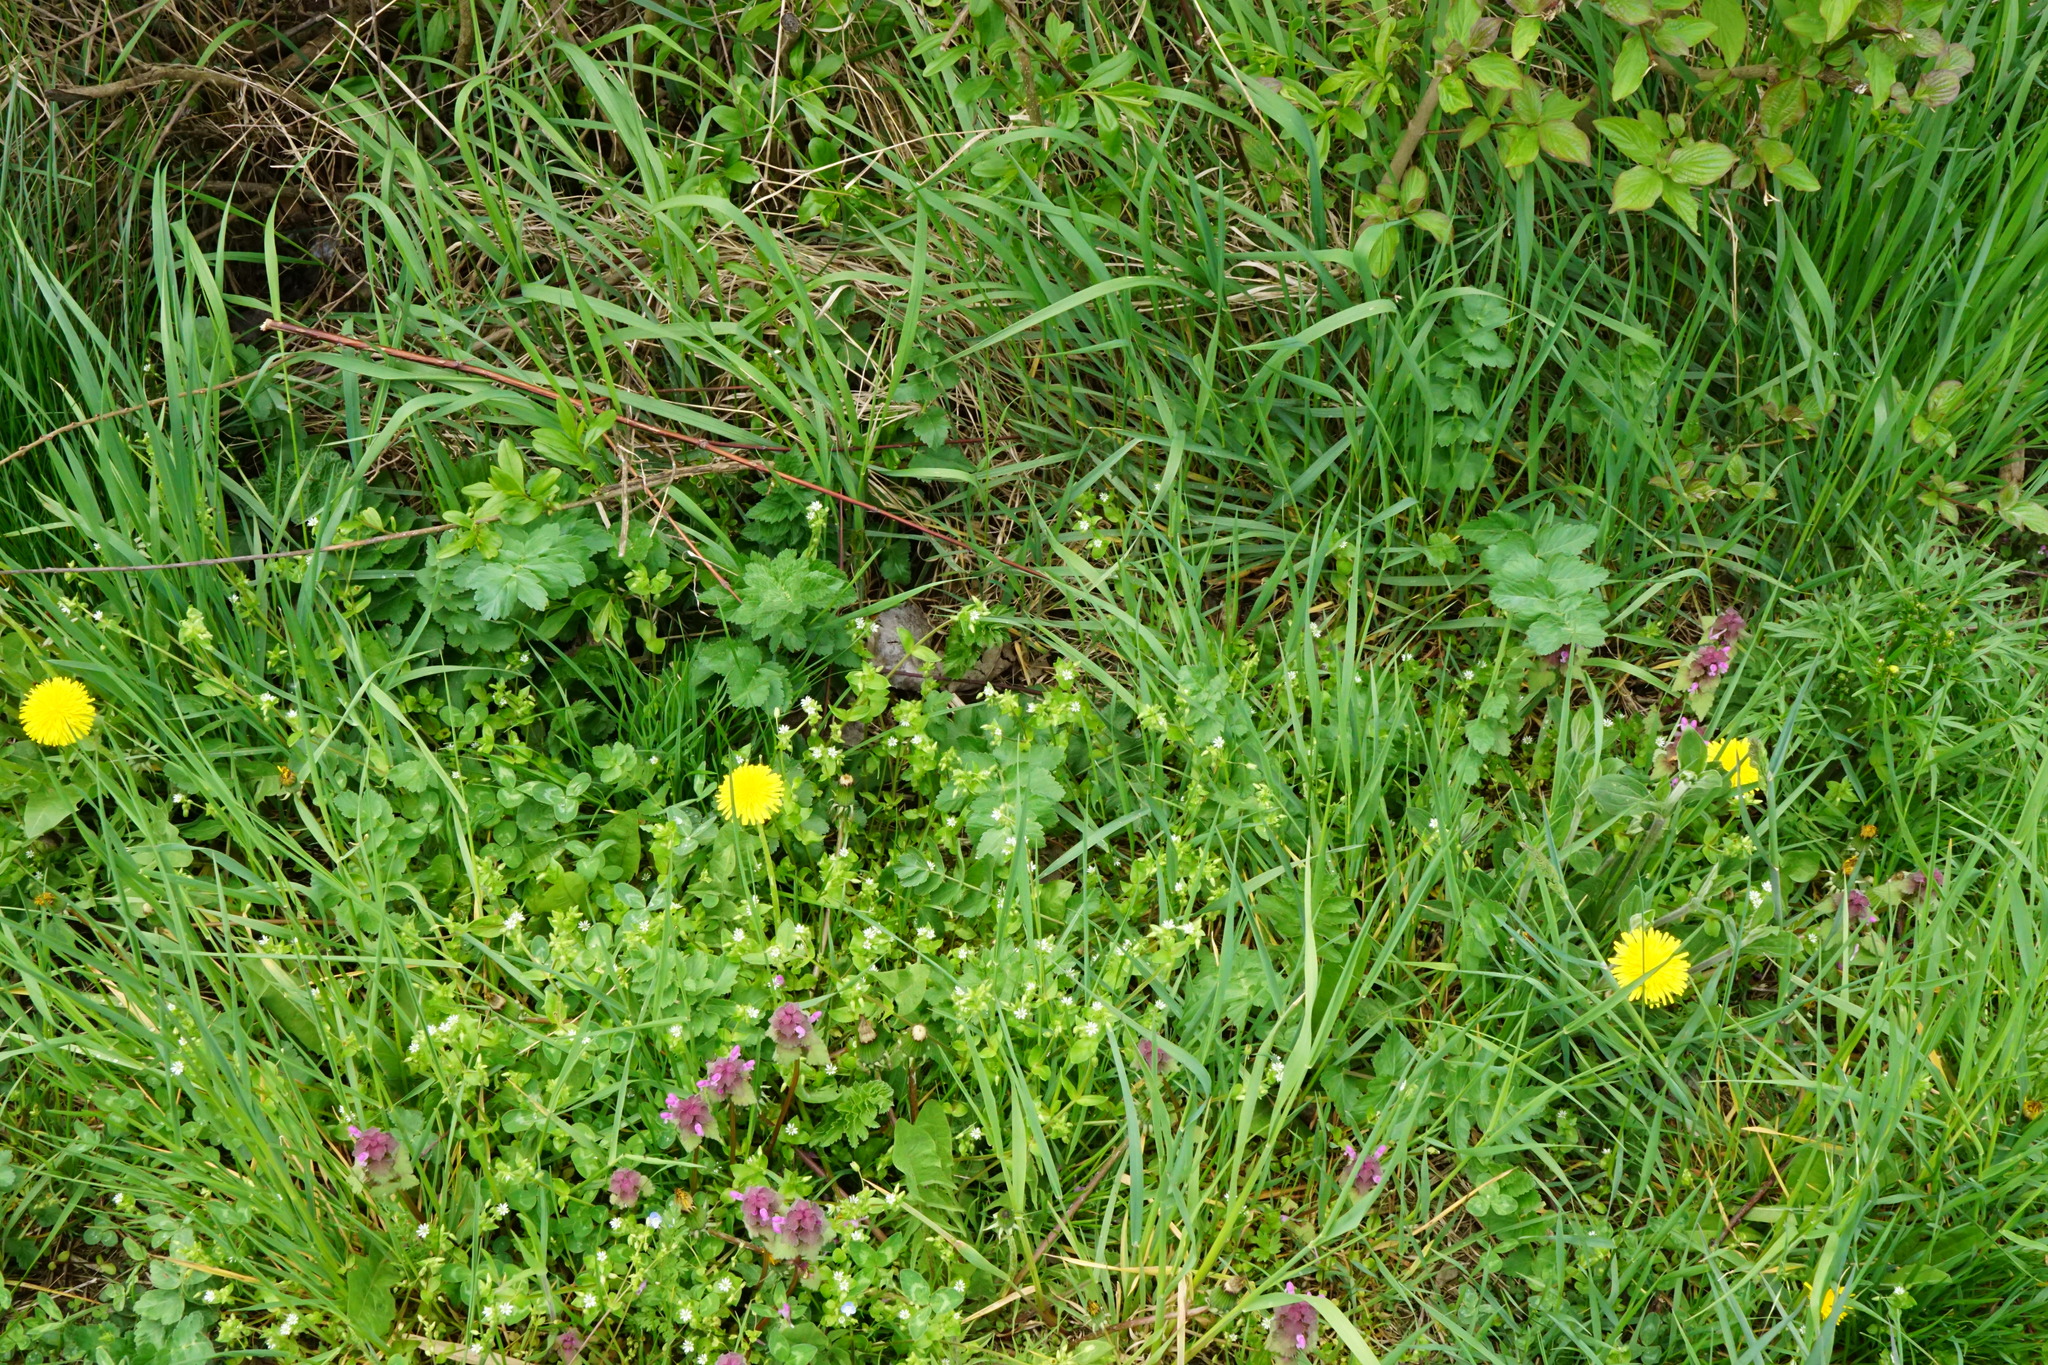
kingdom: Plantae
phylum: Tracheophyta
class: Magnoliopsida
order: Apiales
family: Apiaceae
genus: Pastinaca
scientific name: Pastinaca sativa
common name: Wild parsnip
